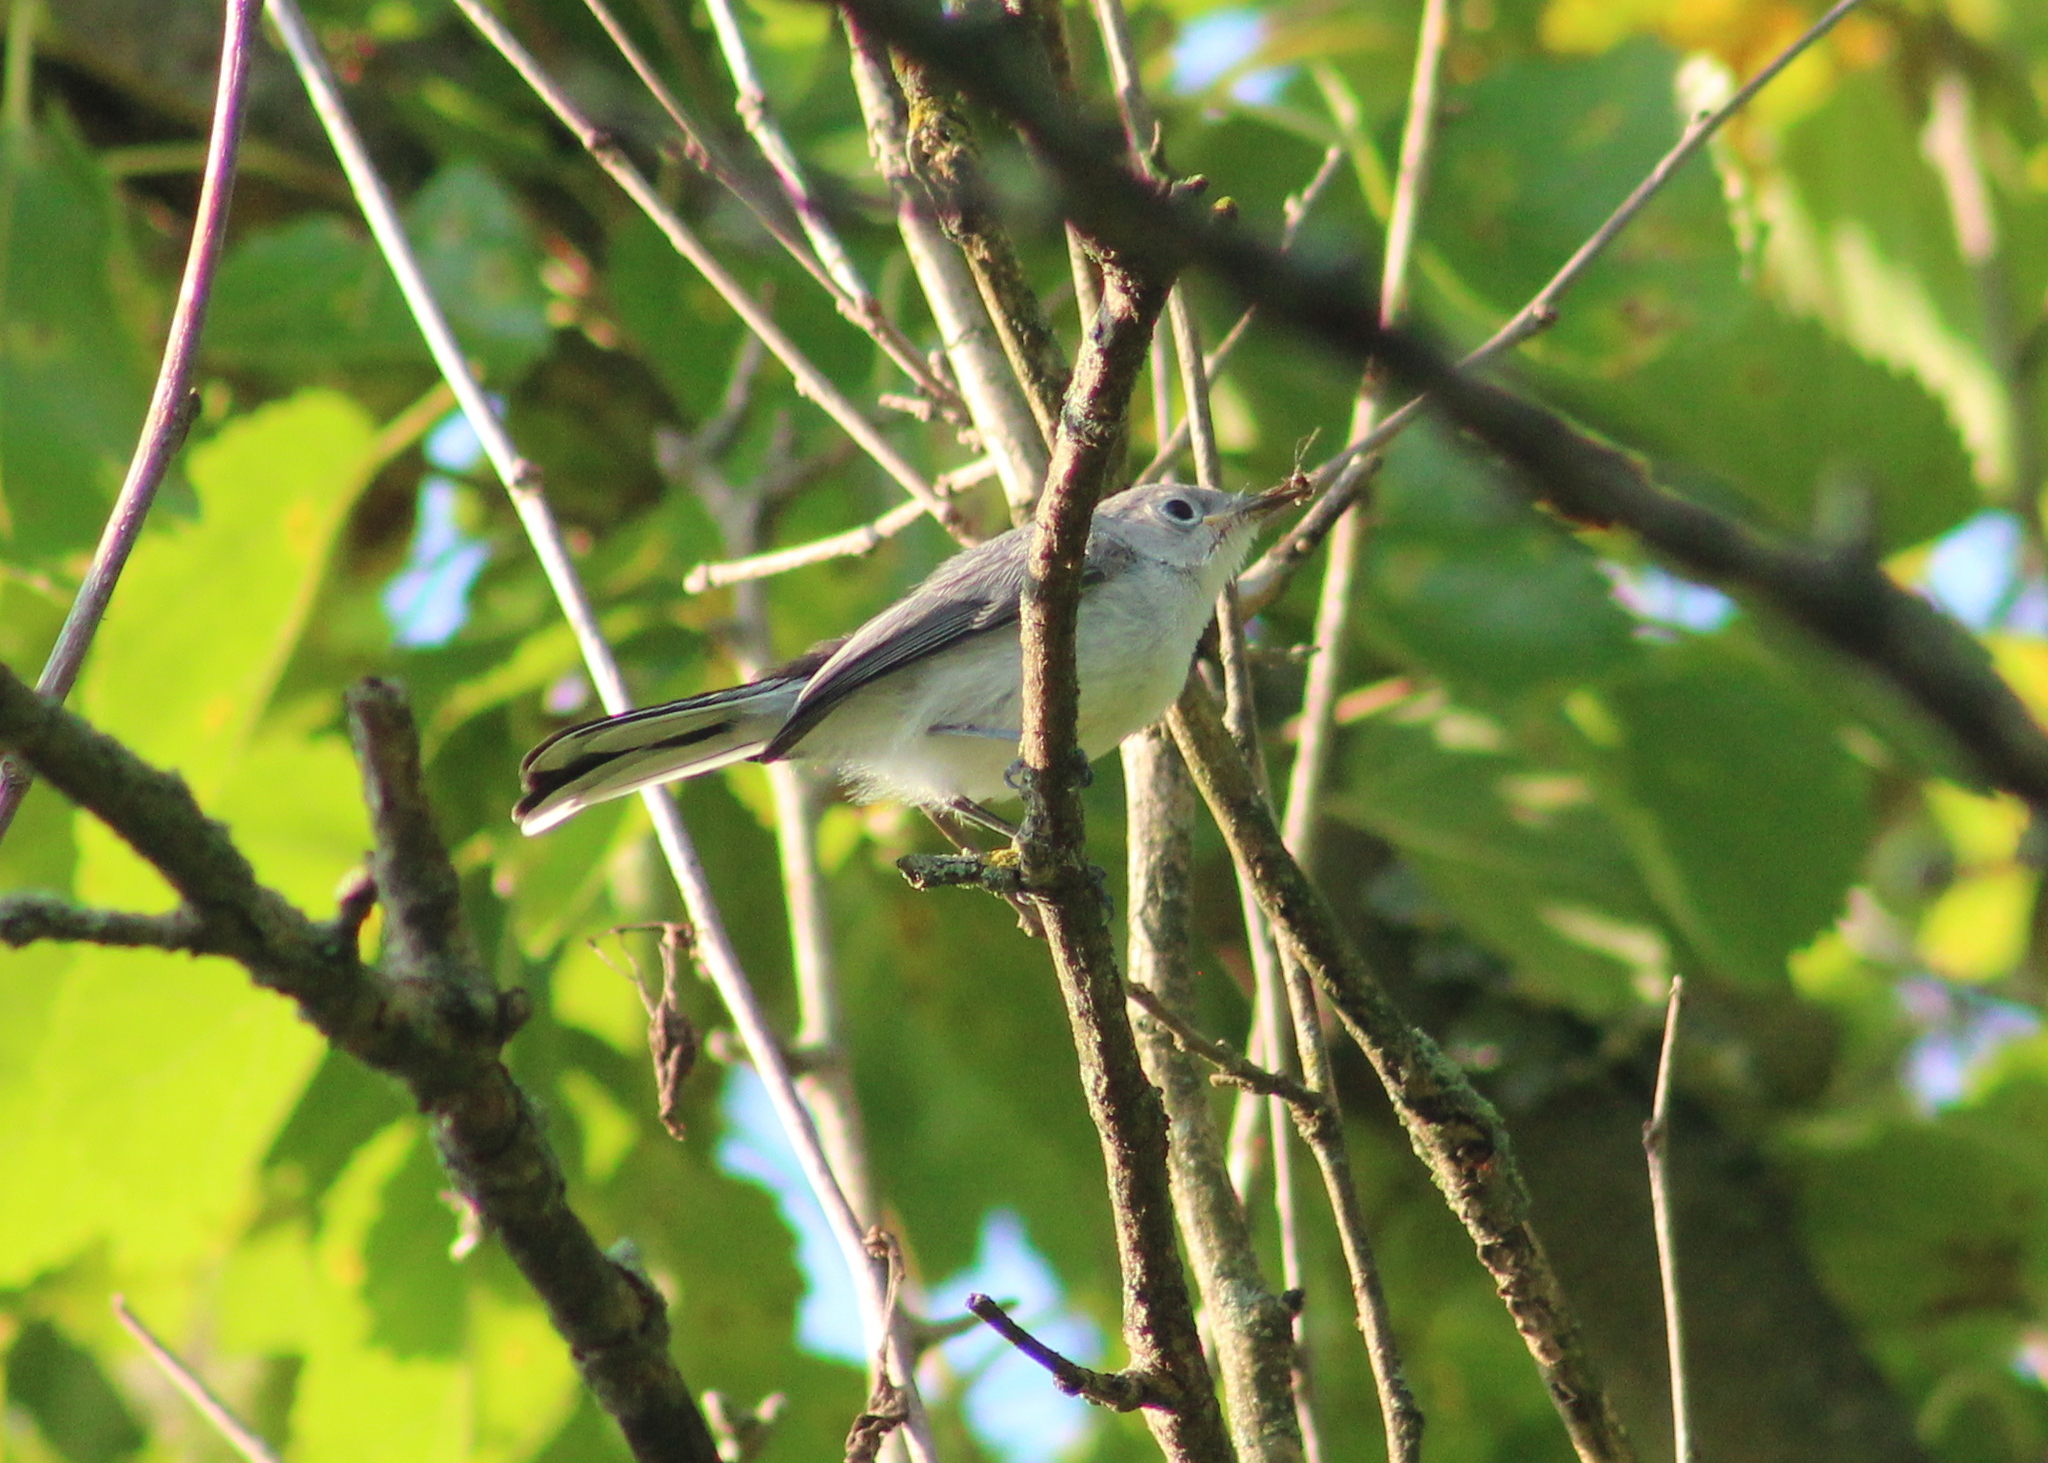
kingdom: Animalia
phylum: Chordata
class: Aves
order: Passeriformes
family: Polioptilidae
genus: Polioptila
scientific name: Polioptila caerulea
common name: Blue-gray gnatcatcher
